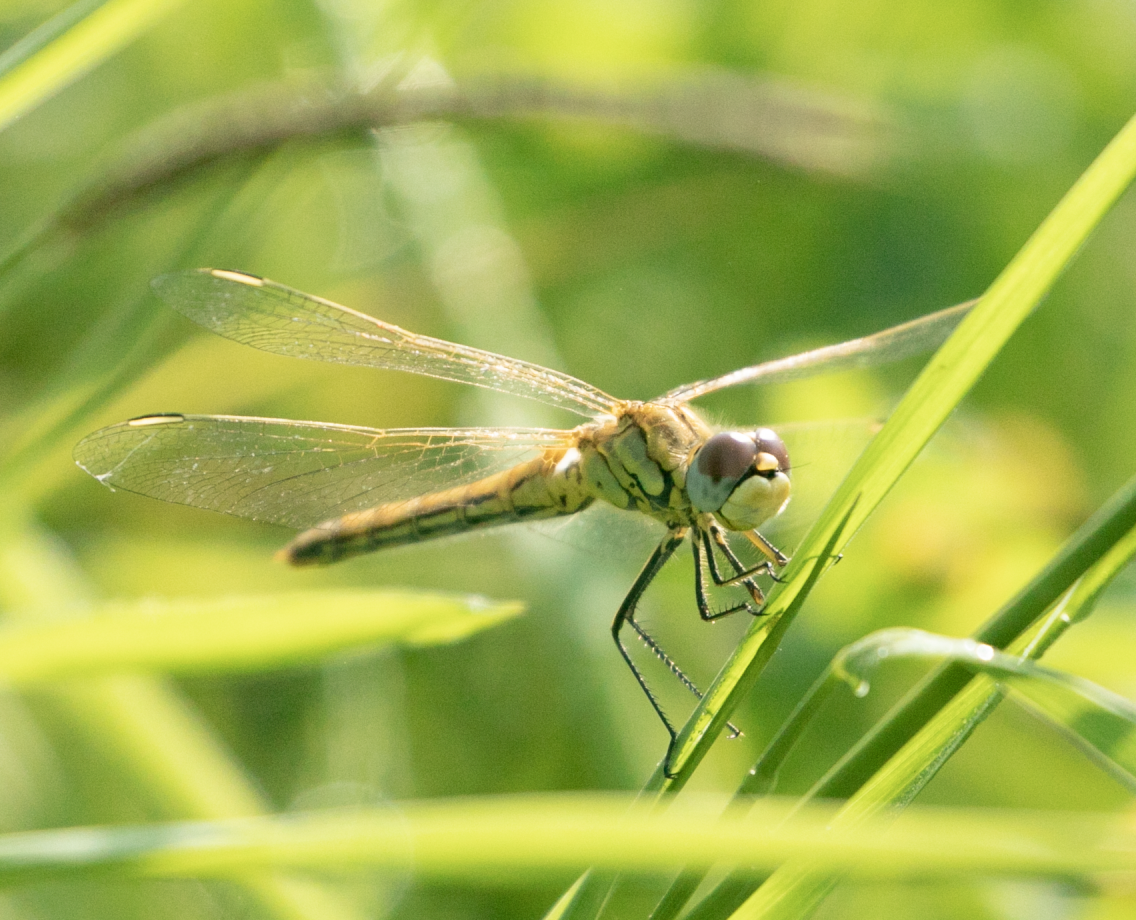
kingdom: Animalia
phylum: Arthropoda
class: Insecta
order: Odonata
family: Libellulidae
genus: Sympetrum
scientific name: Sympetrum fonscolombii
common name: Red-veined darter
